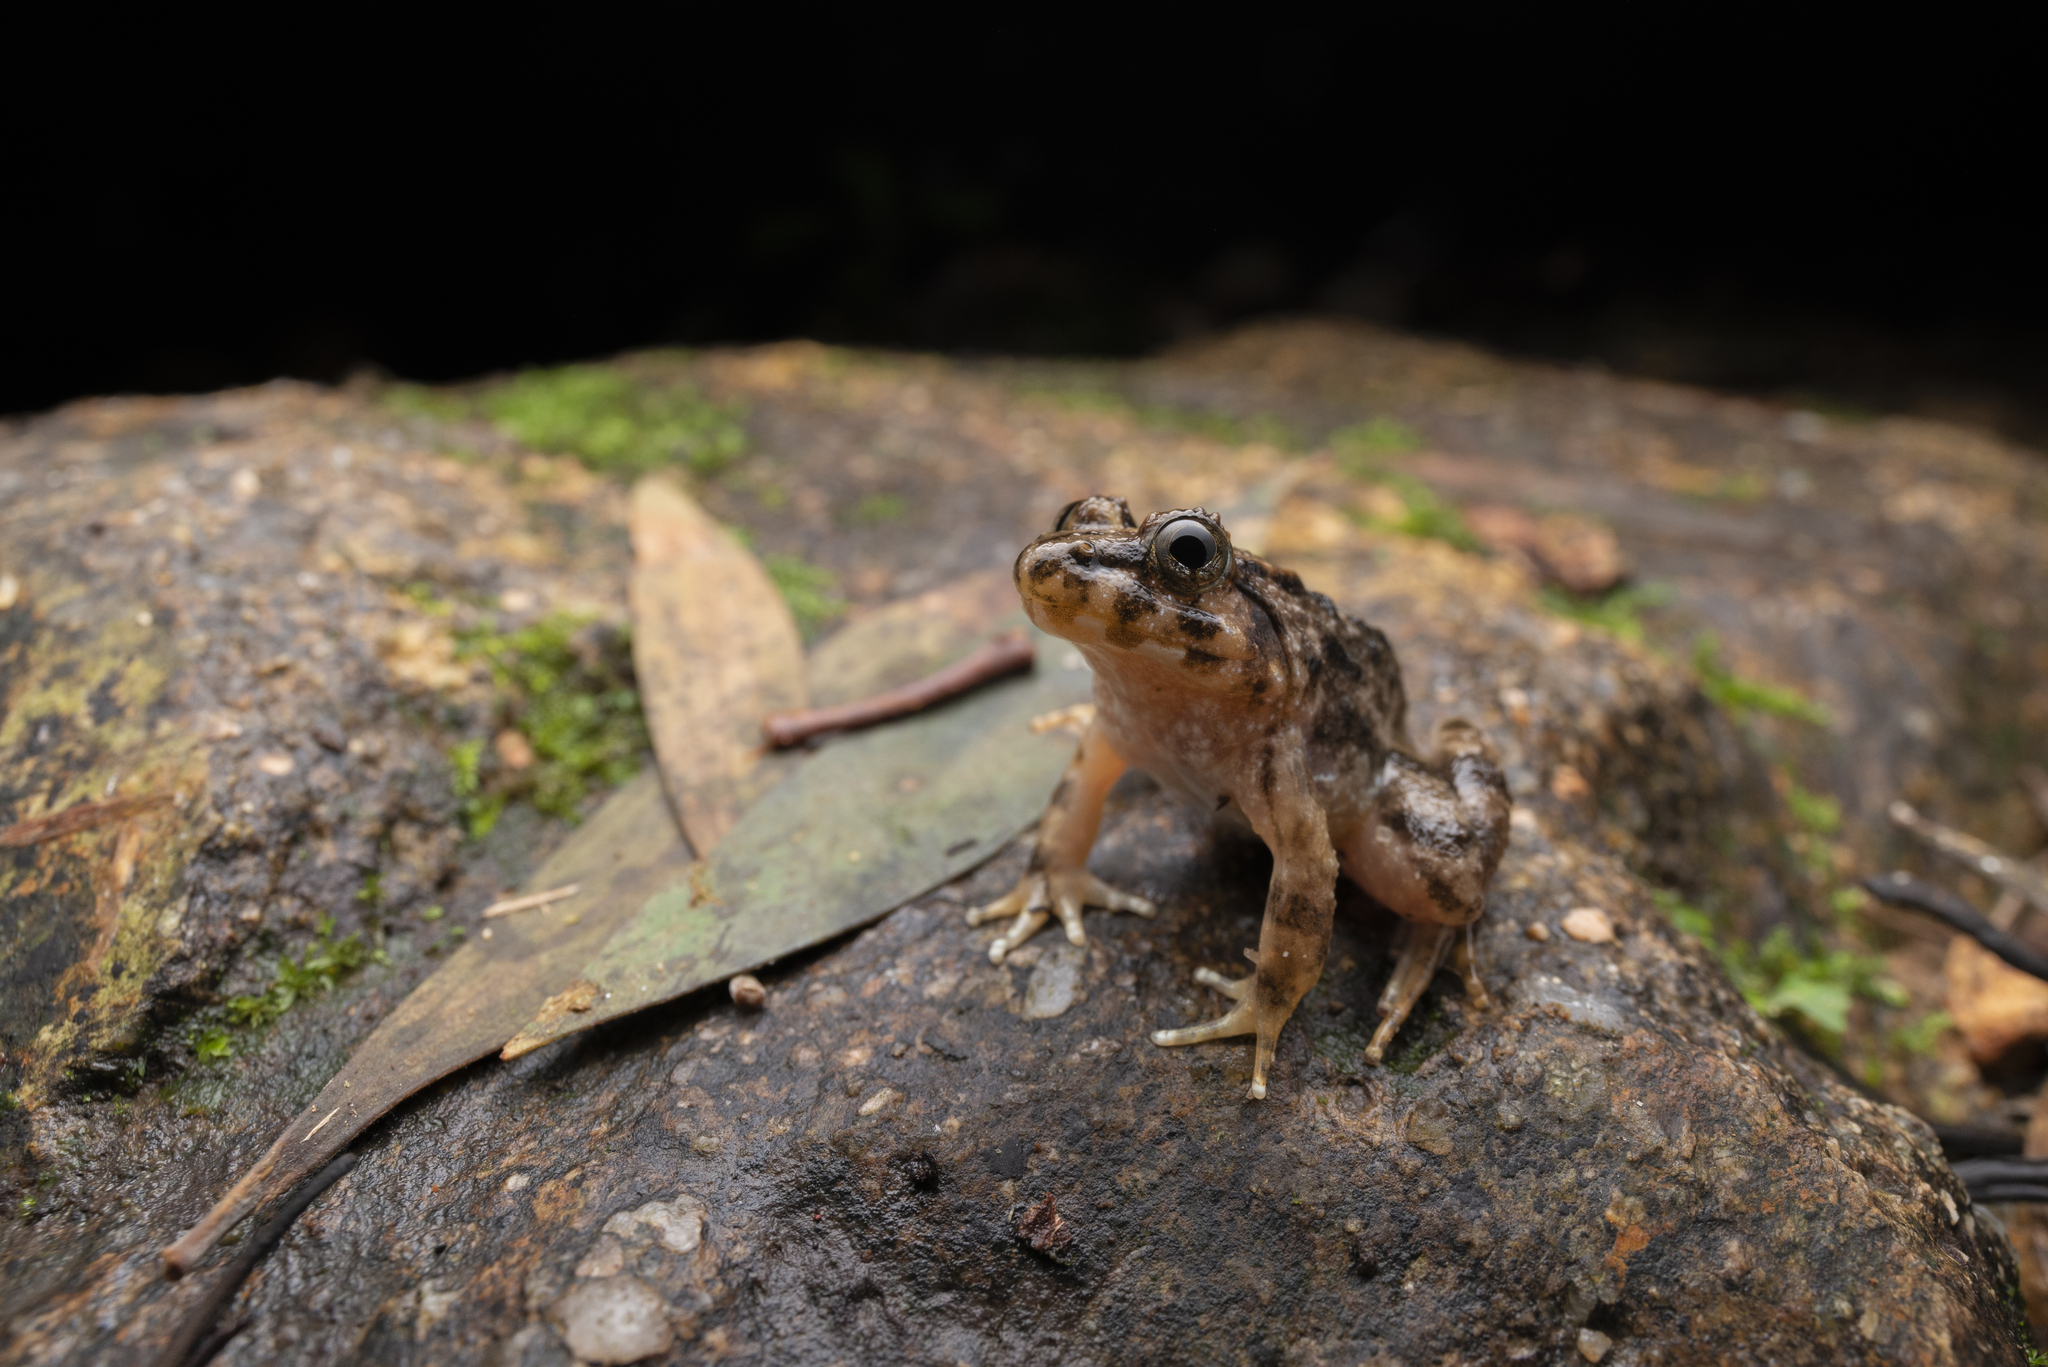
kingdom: Animalia
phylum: Chordata
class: Amphibia
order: Anura
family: Dicroglossidae
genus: Limnonectes
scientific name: Limnonectes fujianensis
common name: Fujian large-headed frog
